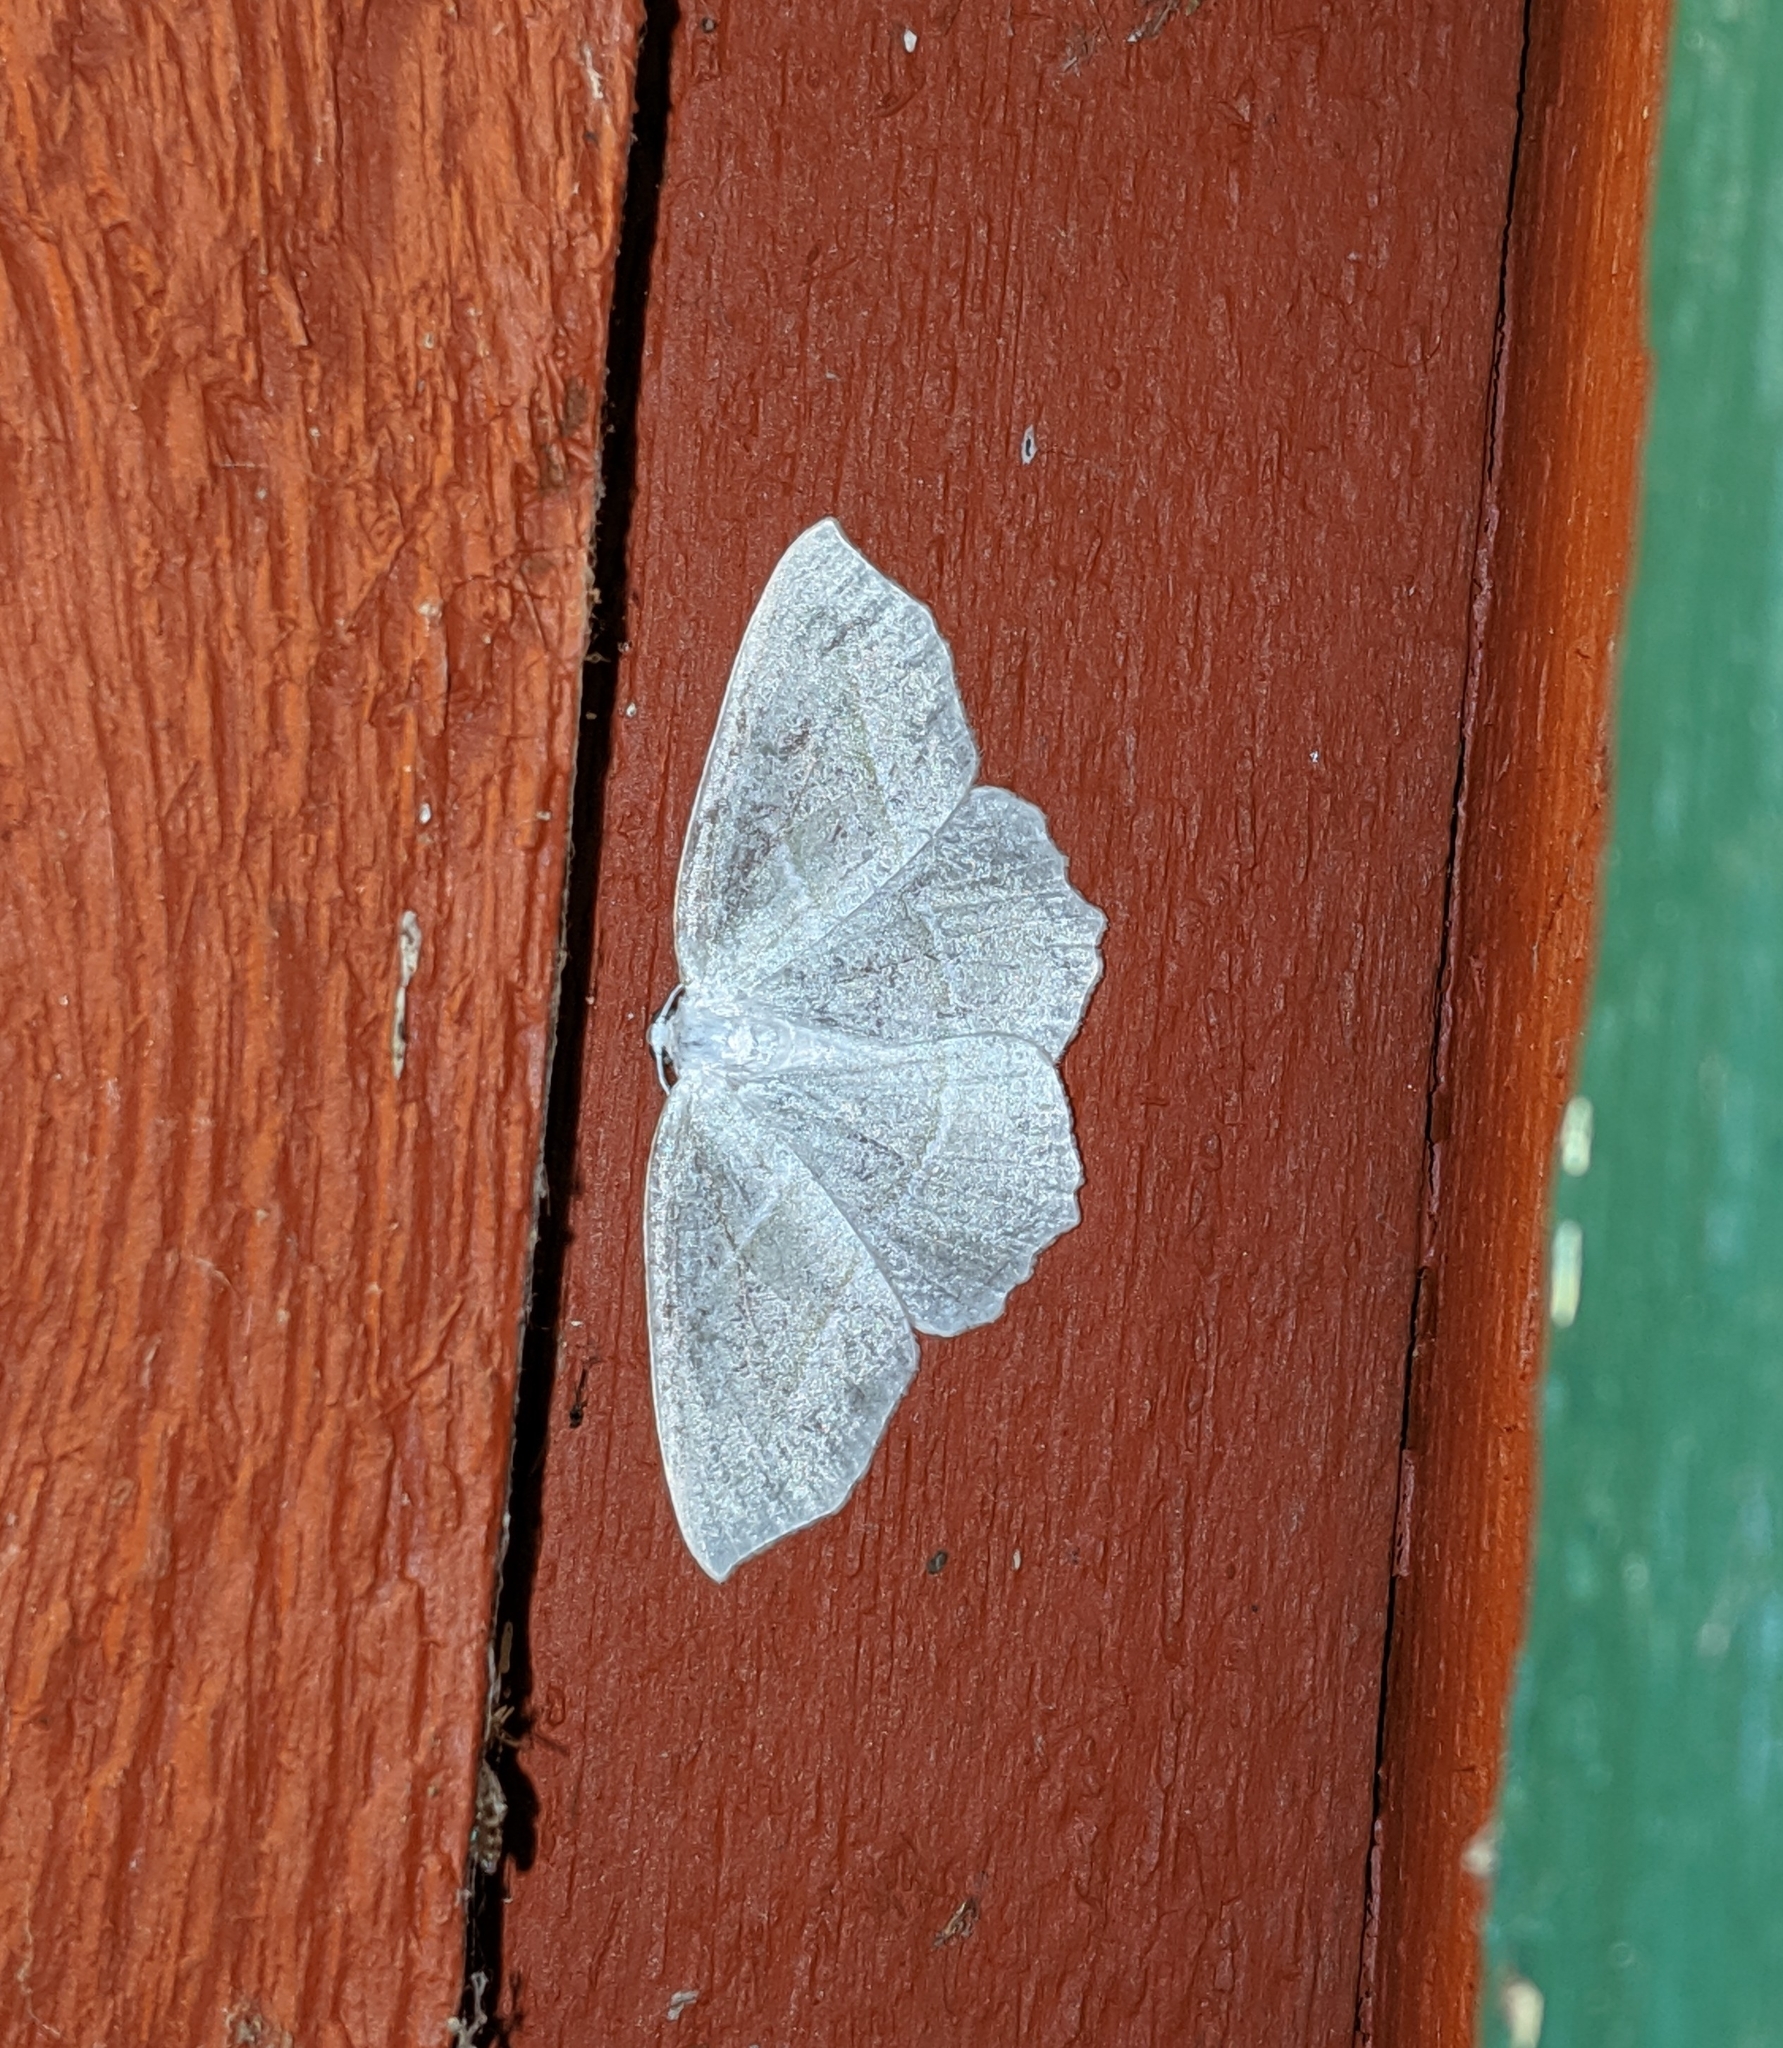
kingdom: Animalia
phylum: Arthropoda
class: Insecta
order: Lepidoptera
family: Geometridae
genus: Campaea
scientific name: Campaea perlata
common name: Fringed looper
